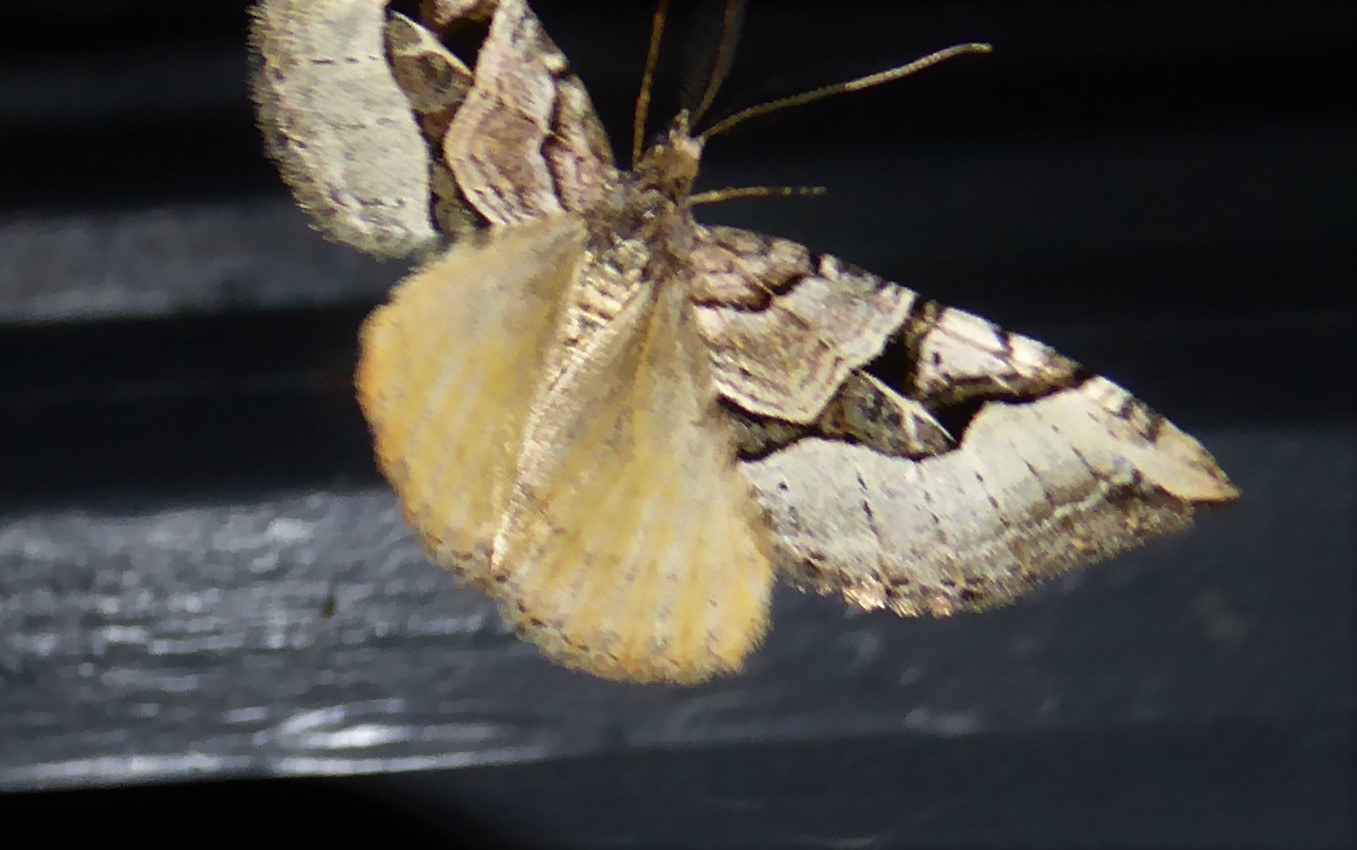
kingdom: Animalia
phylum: Arthropoda
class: Insecta
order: Lepidoptera
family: Geometridae
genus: Xanthorhoe
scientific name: Xanthorhoe semifissata
